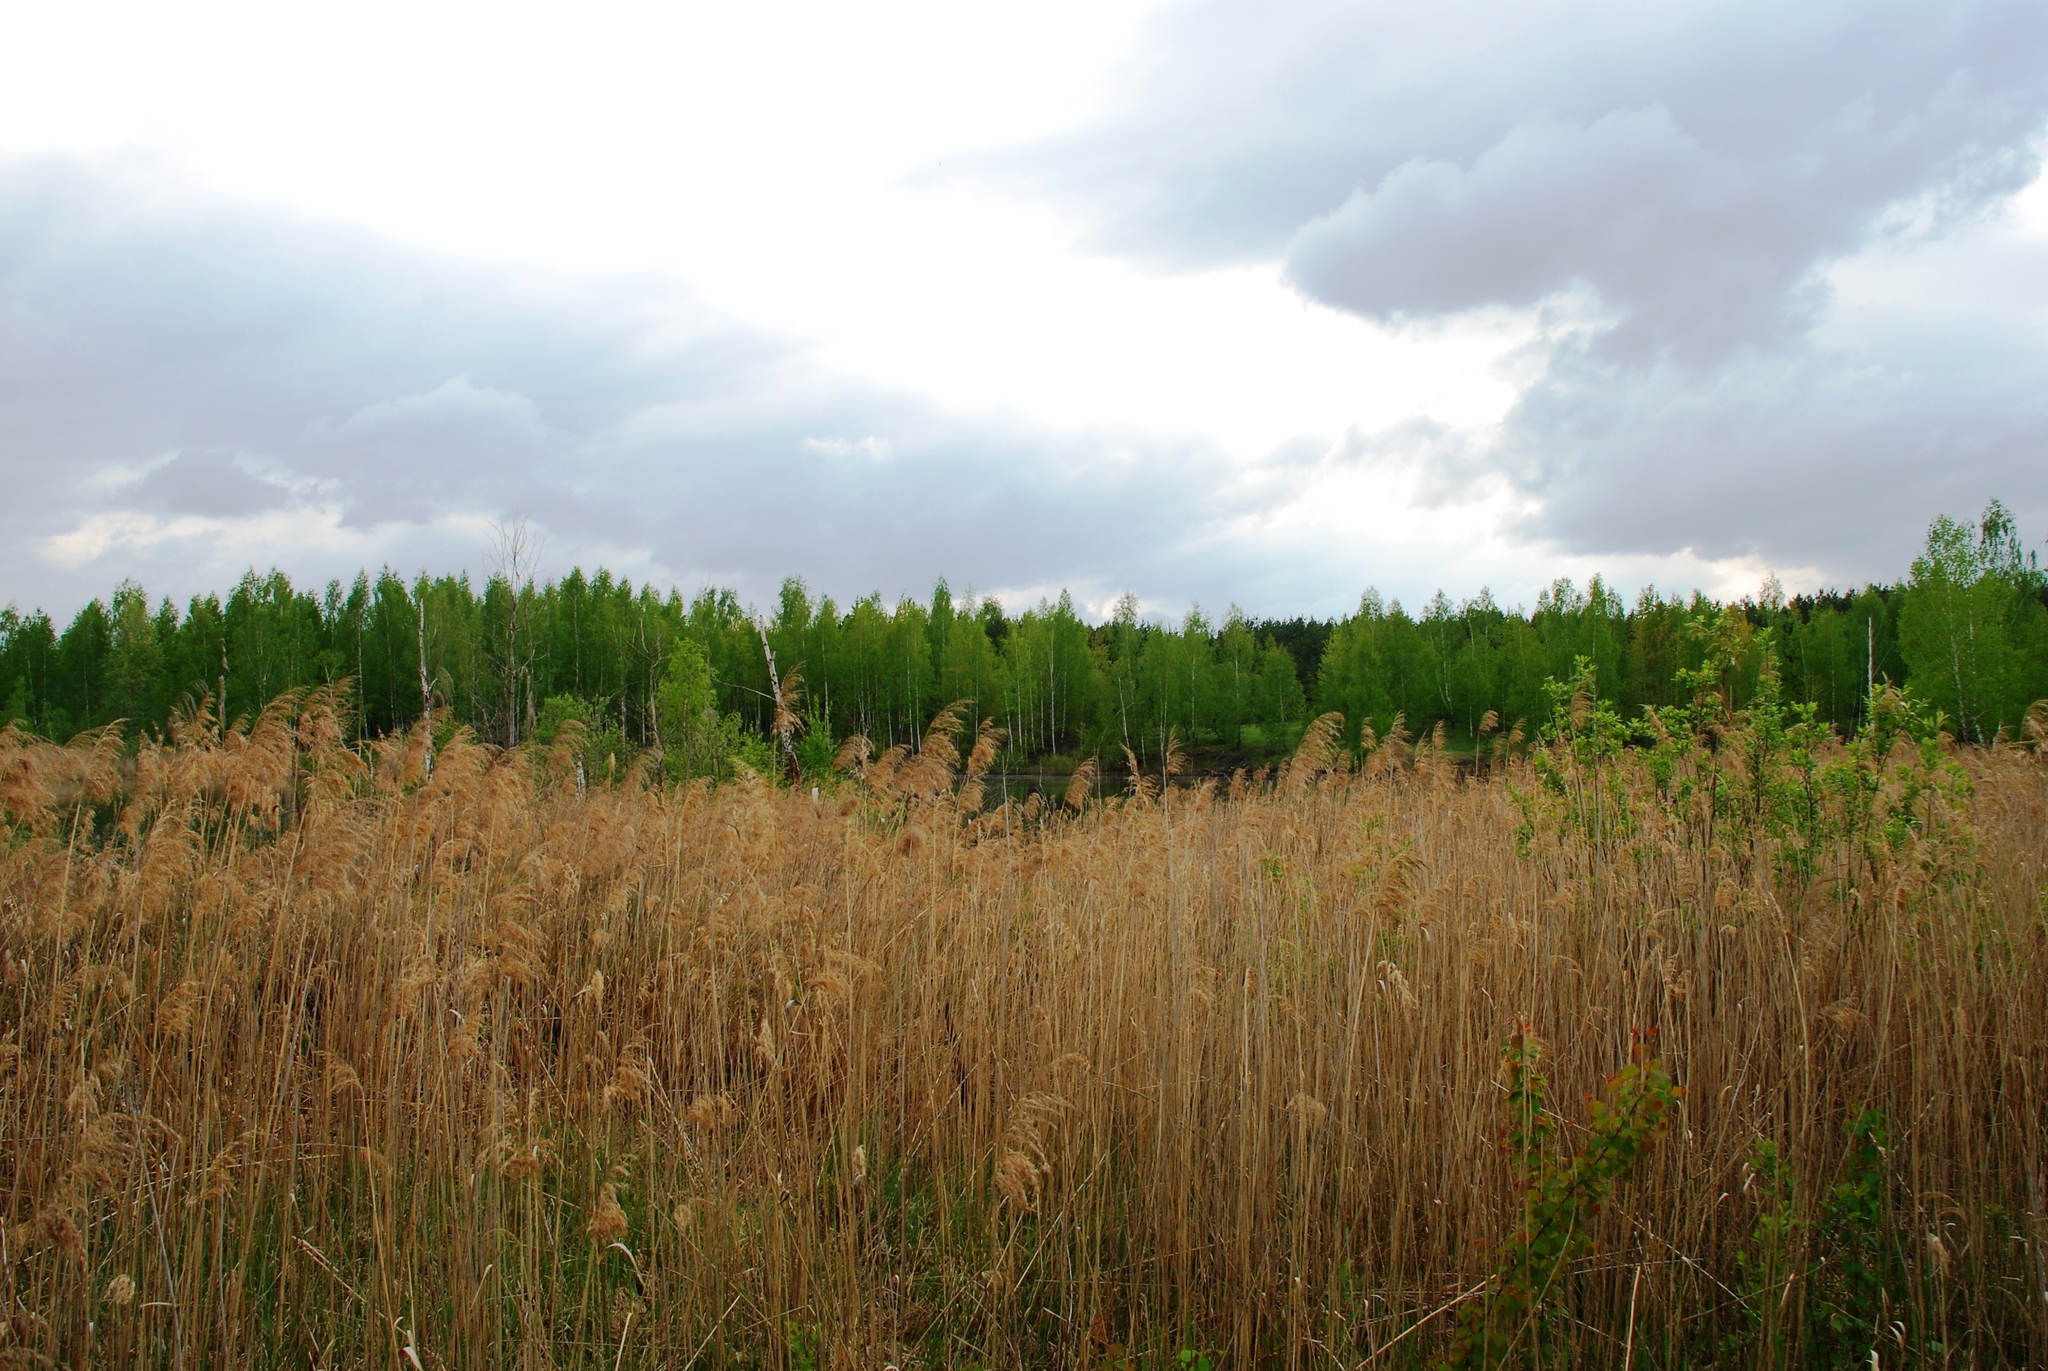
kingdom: Plantae
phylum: Tracheophyta
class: Liliopsida
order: Poales
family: Poaceae
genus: Phragmites
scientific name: Phragmites australis
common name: Common reed
